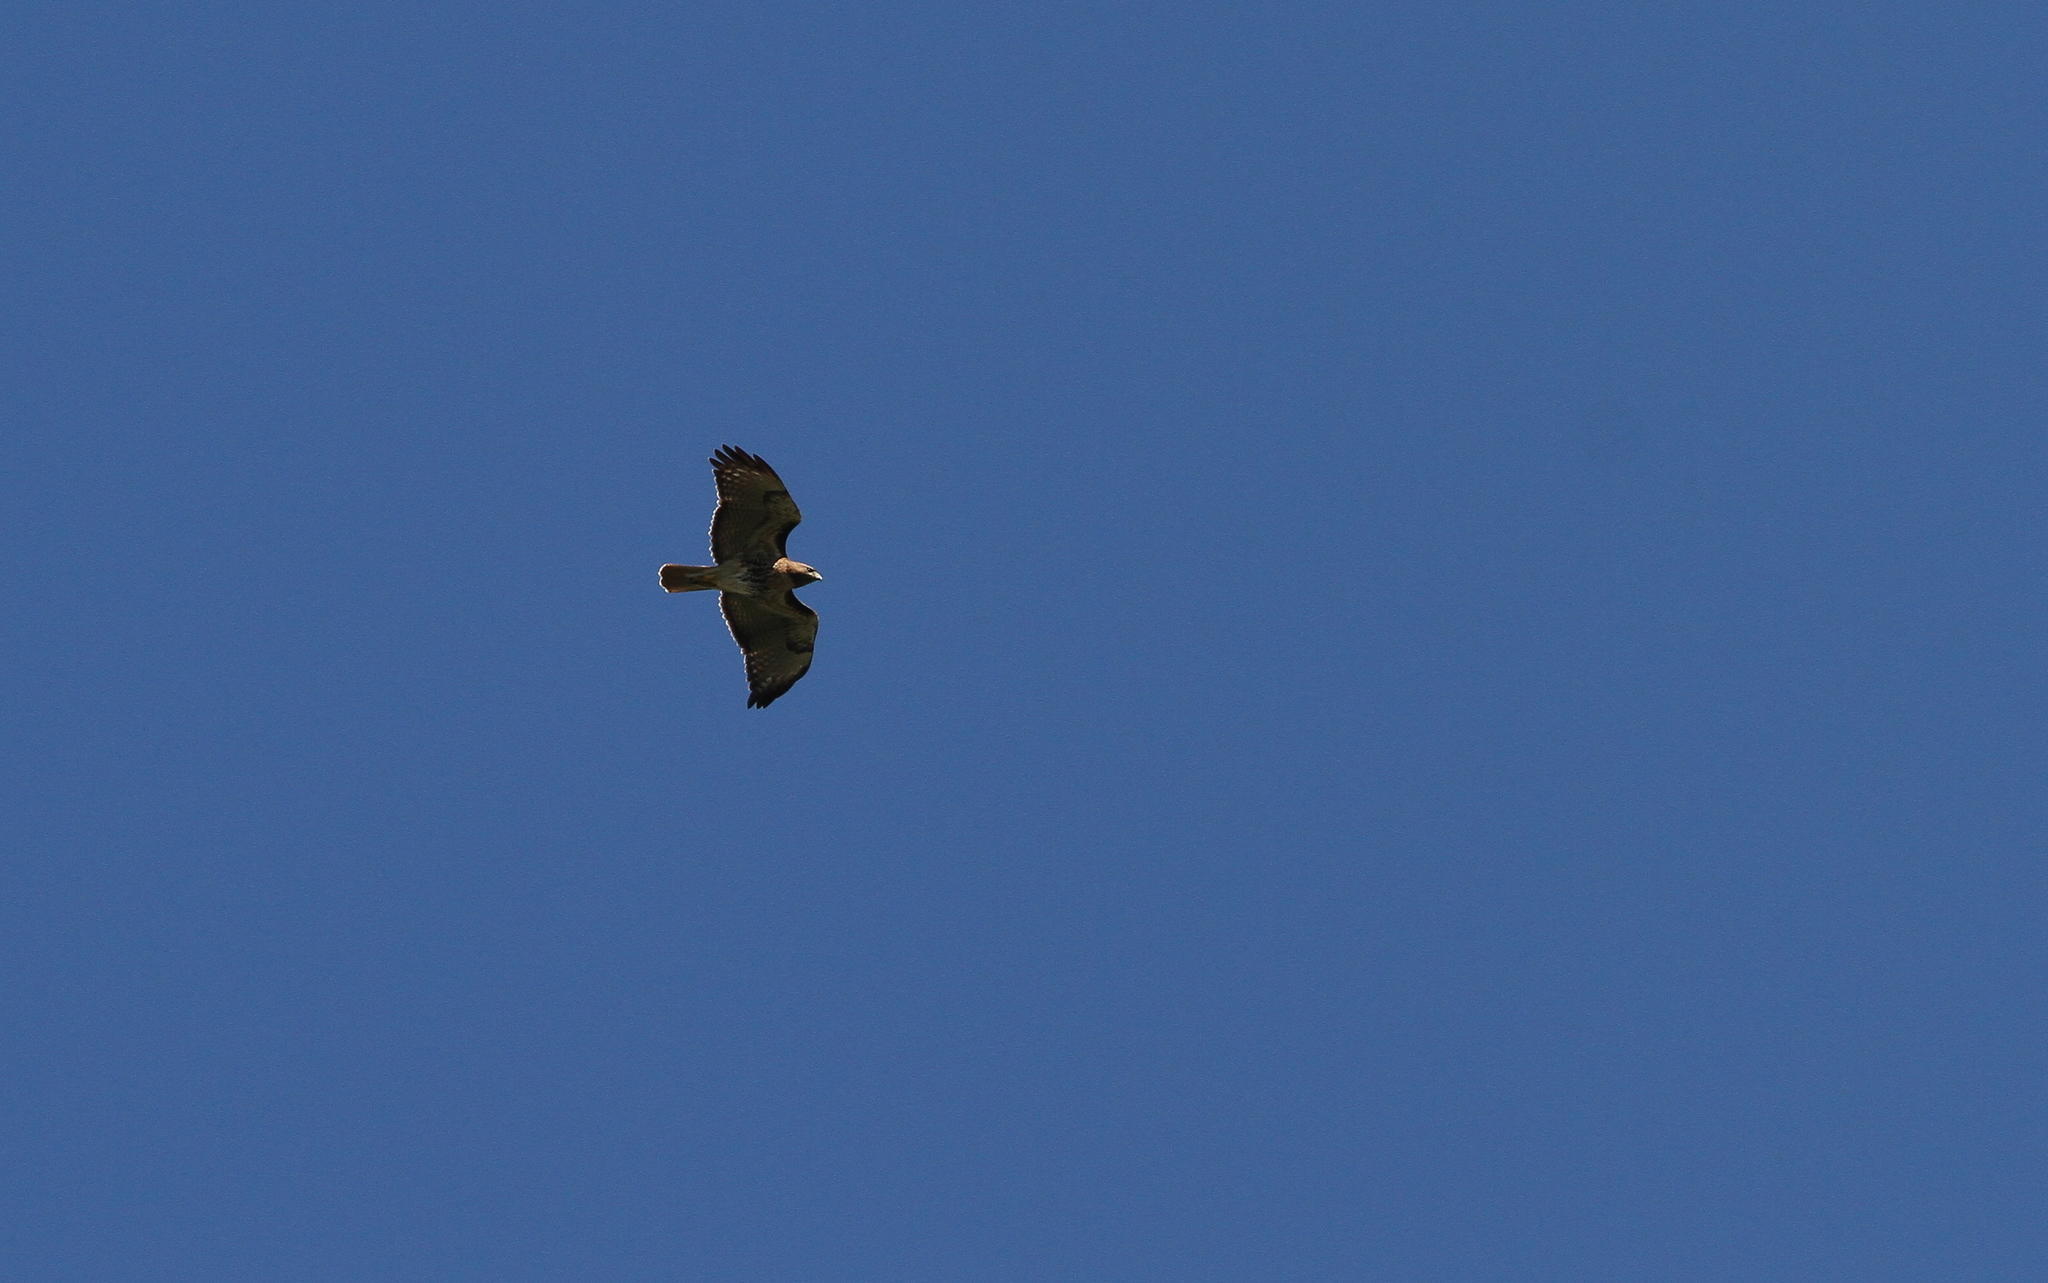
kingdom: Animalia
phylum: Chordata
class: Aves
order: Accipitriformes
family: Accipitridae
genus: Buteo
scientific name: Buteo jamaicensis
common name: Red-tailed hawk
